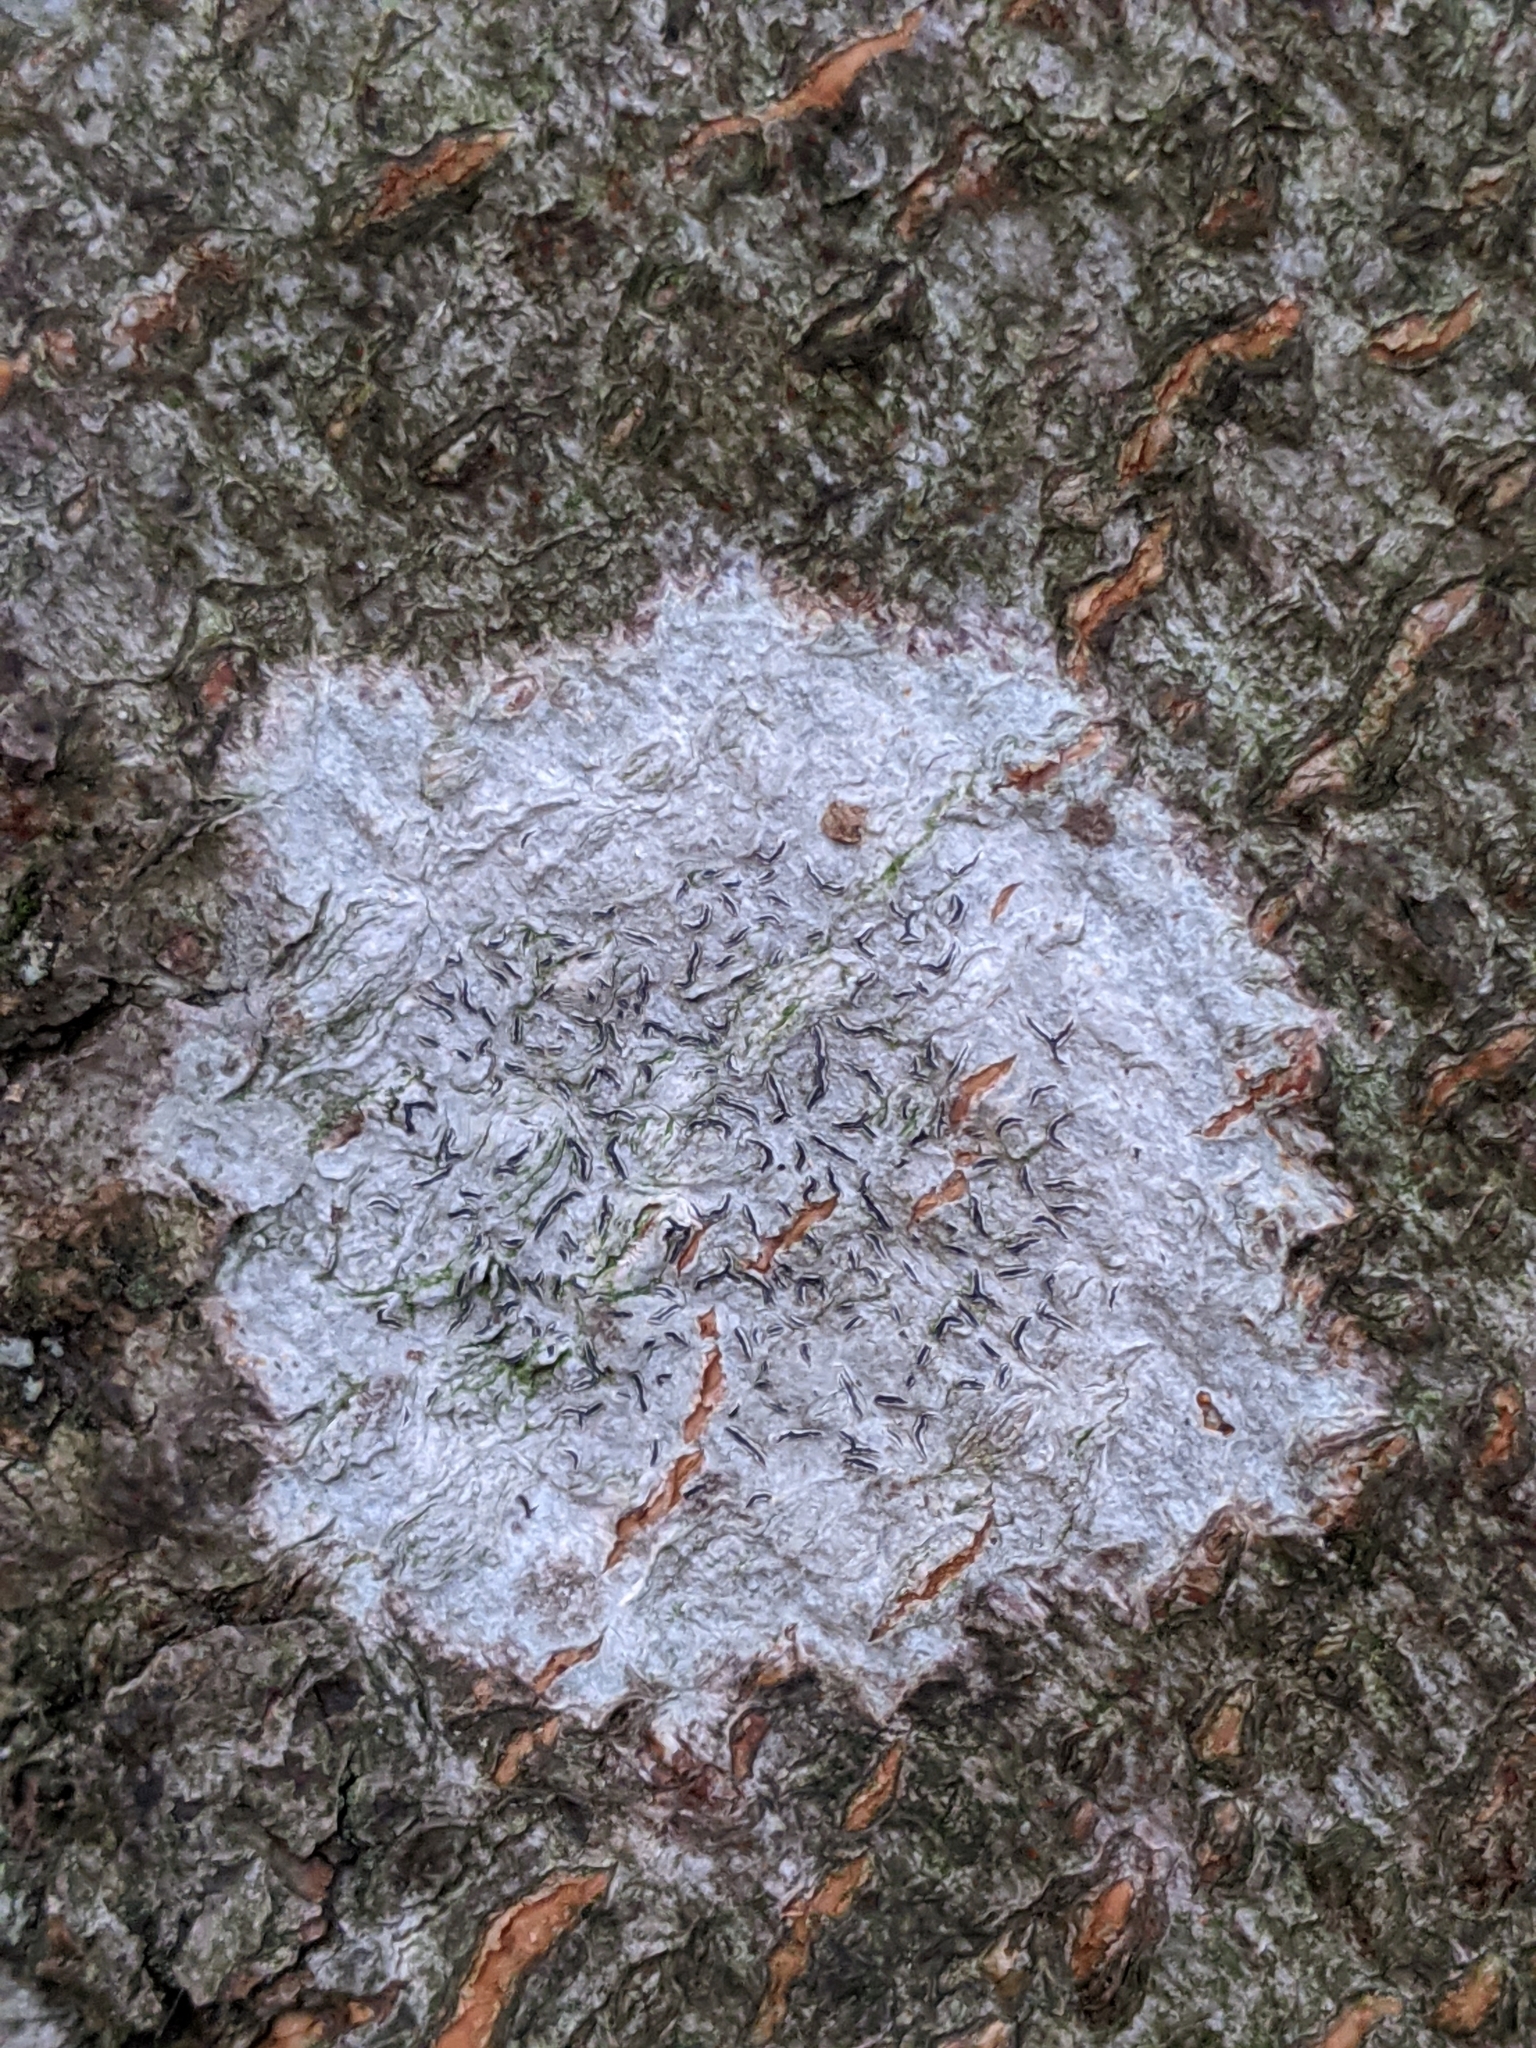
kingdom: Fungi
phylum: Ascomycota
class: Lecanoromycetes
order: Ostropales
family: Graphidaceae
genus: Graphis
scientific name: Graphis scripta
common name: Script lichen
